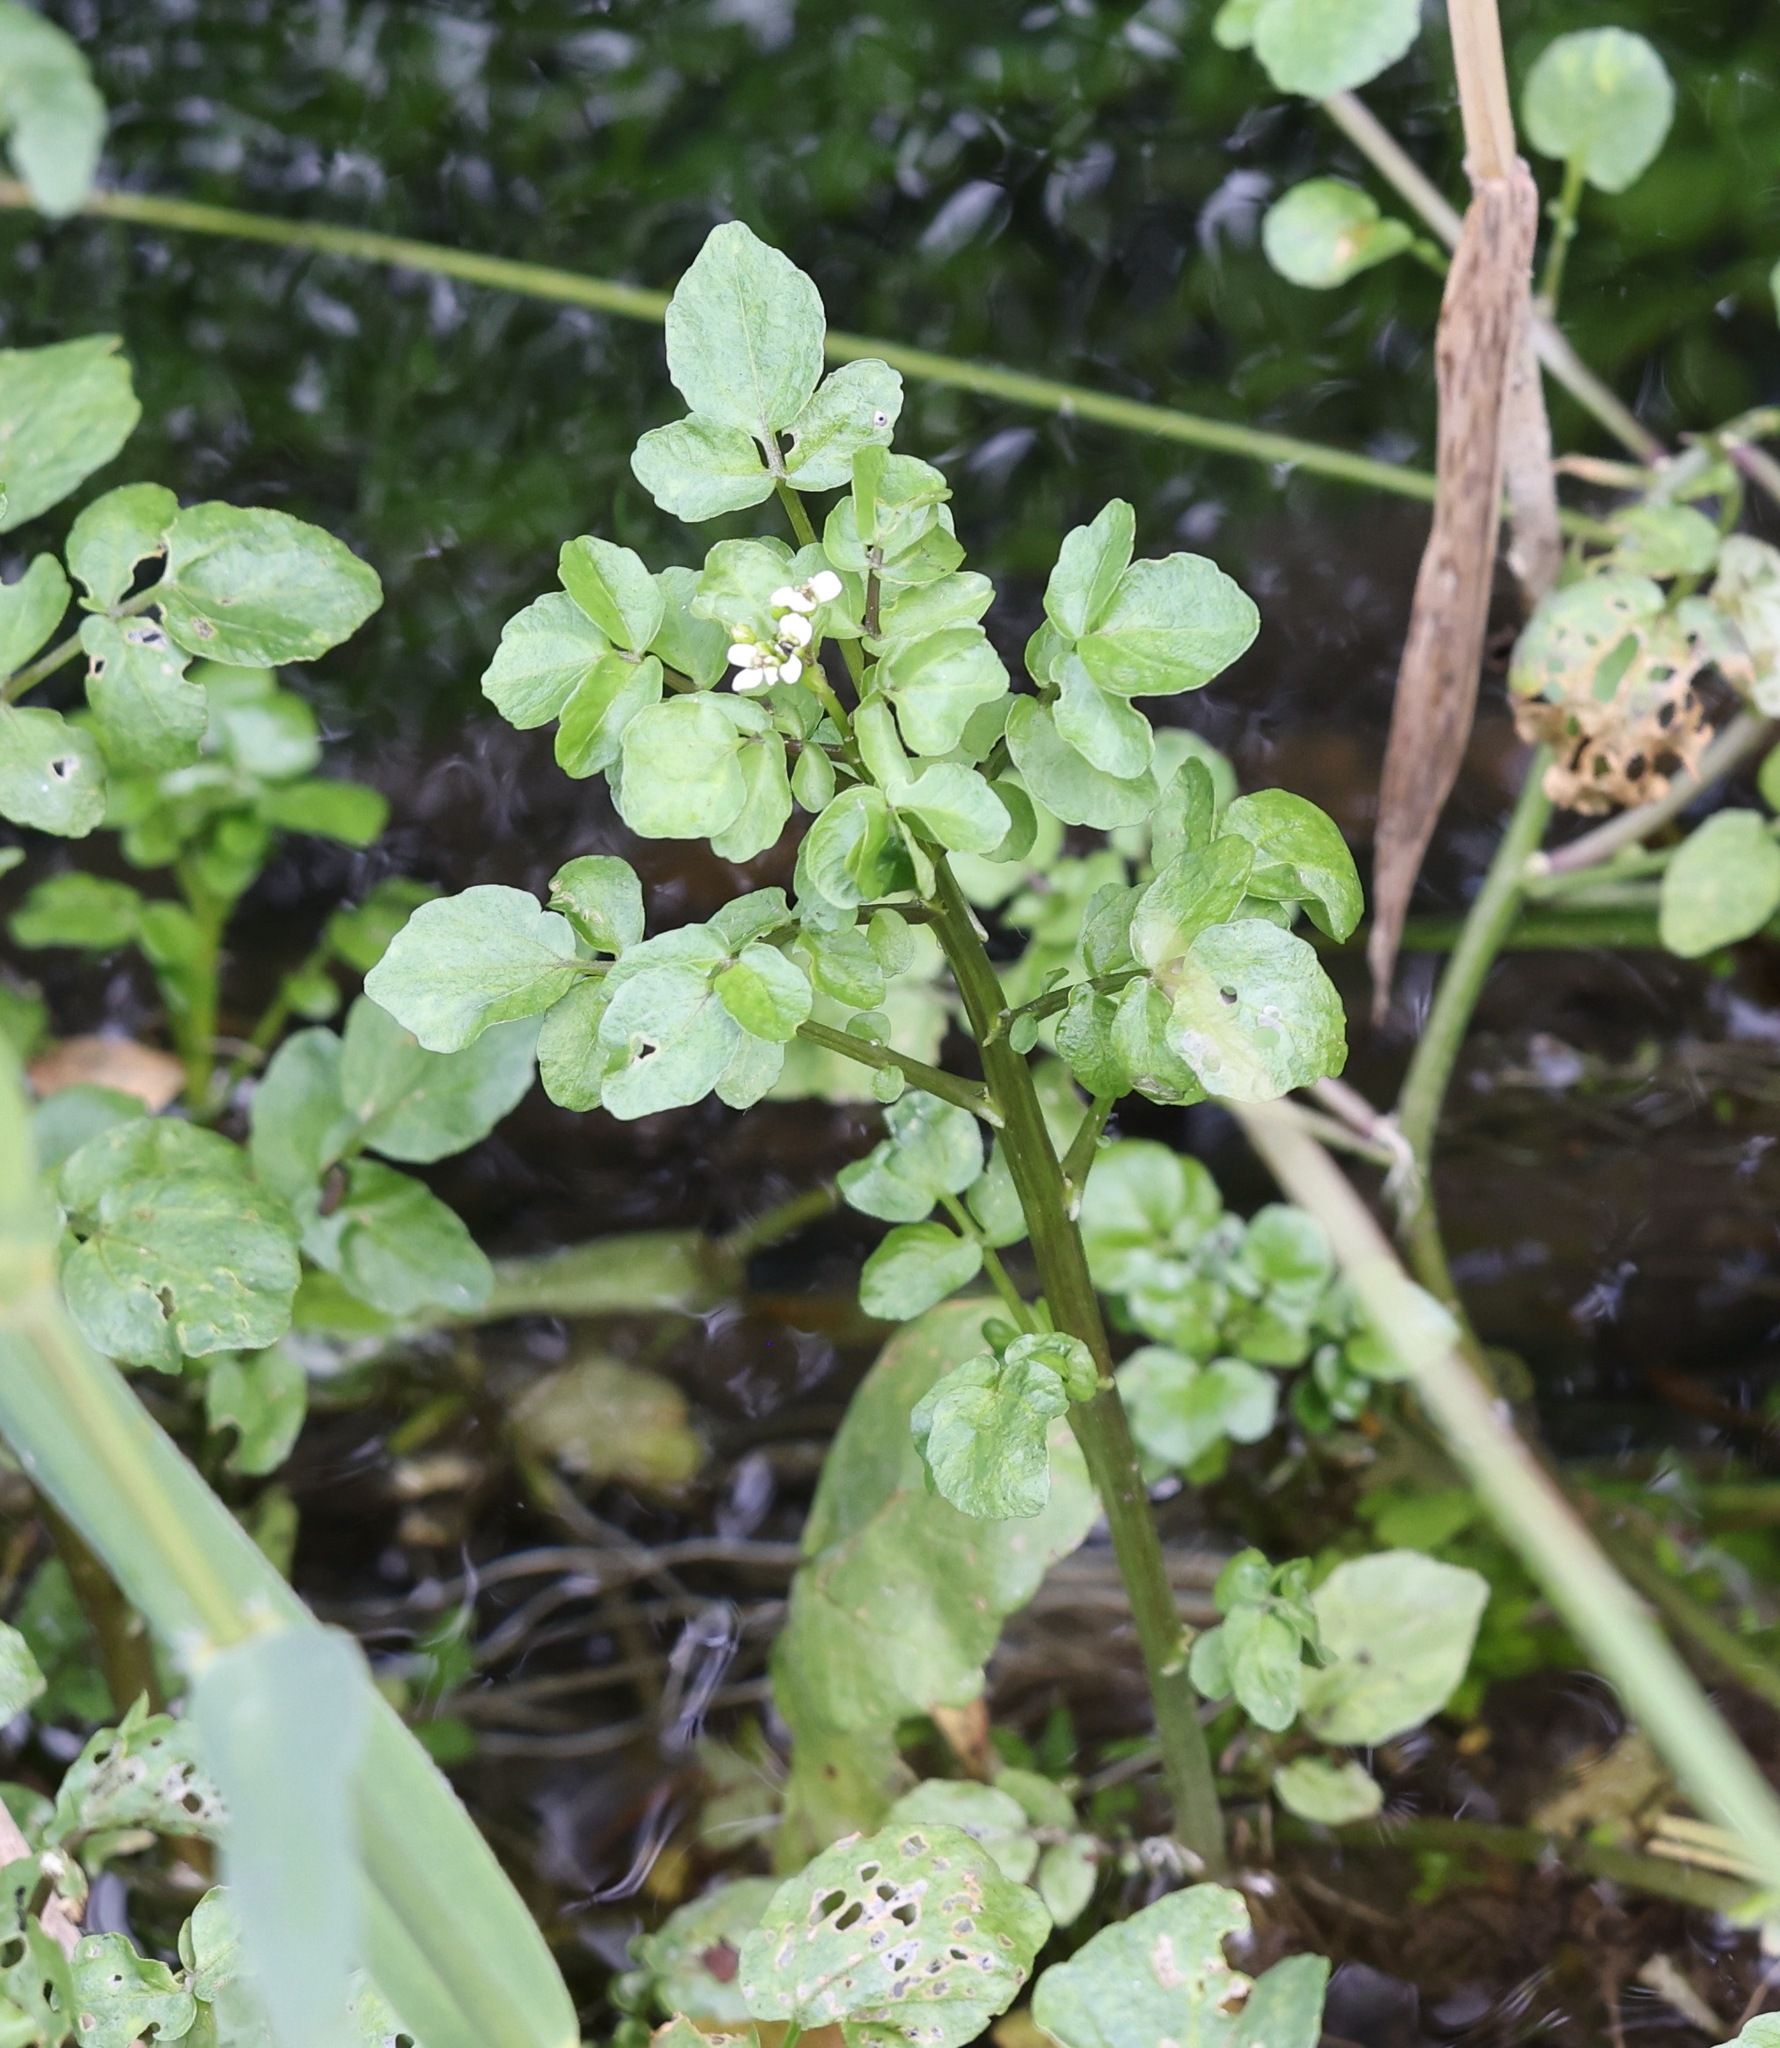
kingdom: Plantae
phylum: Tracheophyta
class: Magnoliopsida
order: Brassicales
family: Brassicaceae
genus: Nasturtium
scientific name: Nasturtium officinale
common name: Watercress
